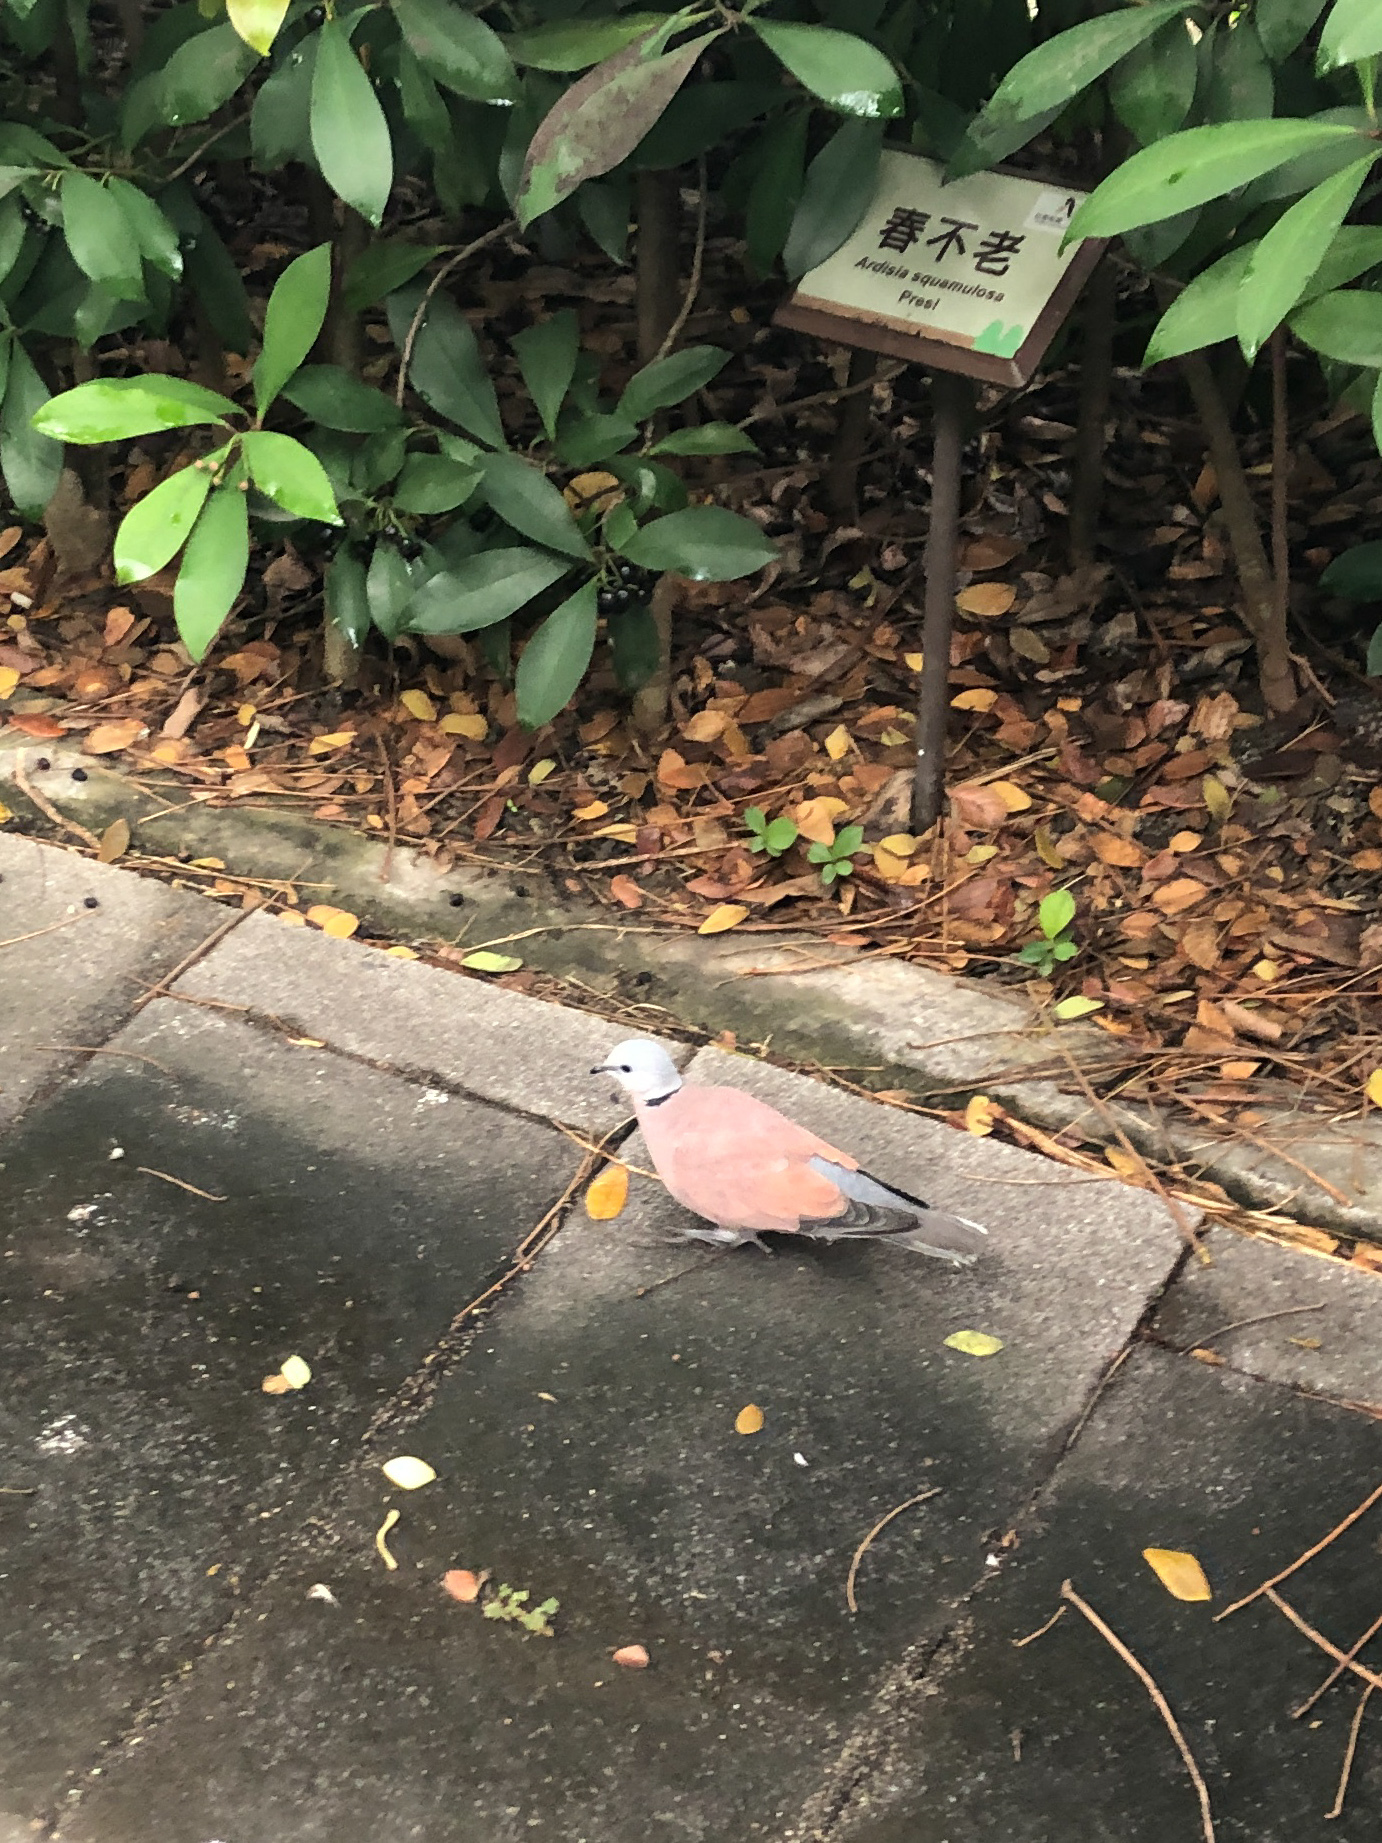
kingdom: Animalia
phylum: Chordata
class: Aves
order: Columbiformes
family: Columbidae
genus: Streptopelia
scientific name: Streptopelia tranquebarica
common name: Red turtle dove
